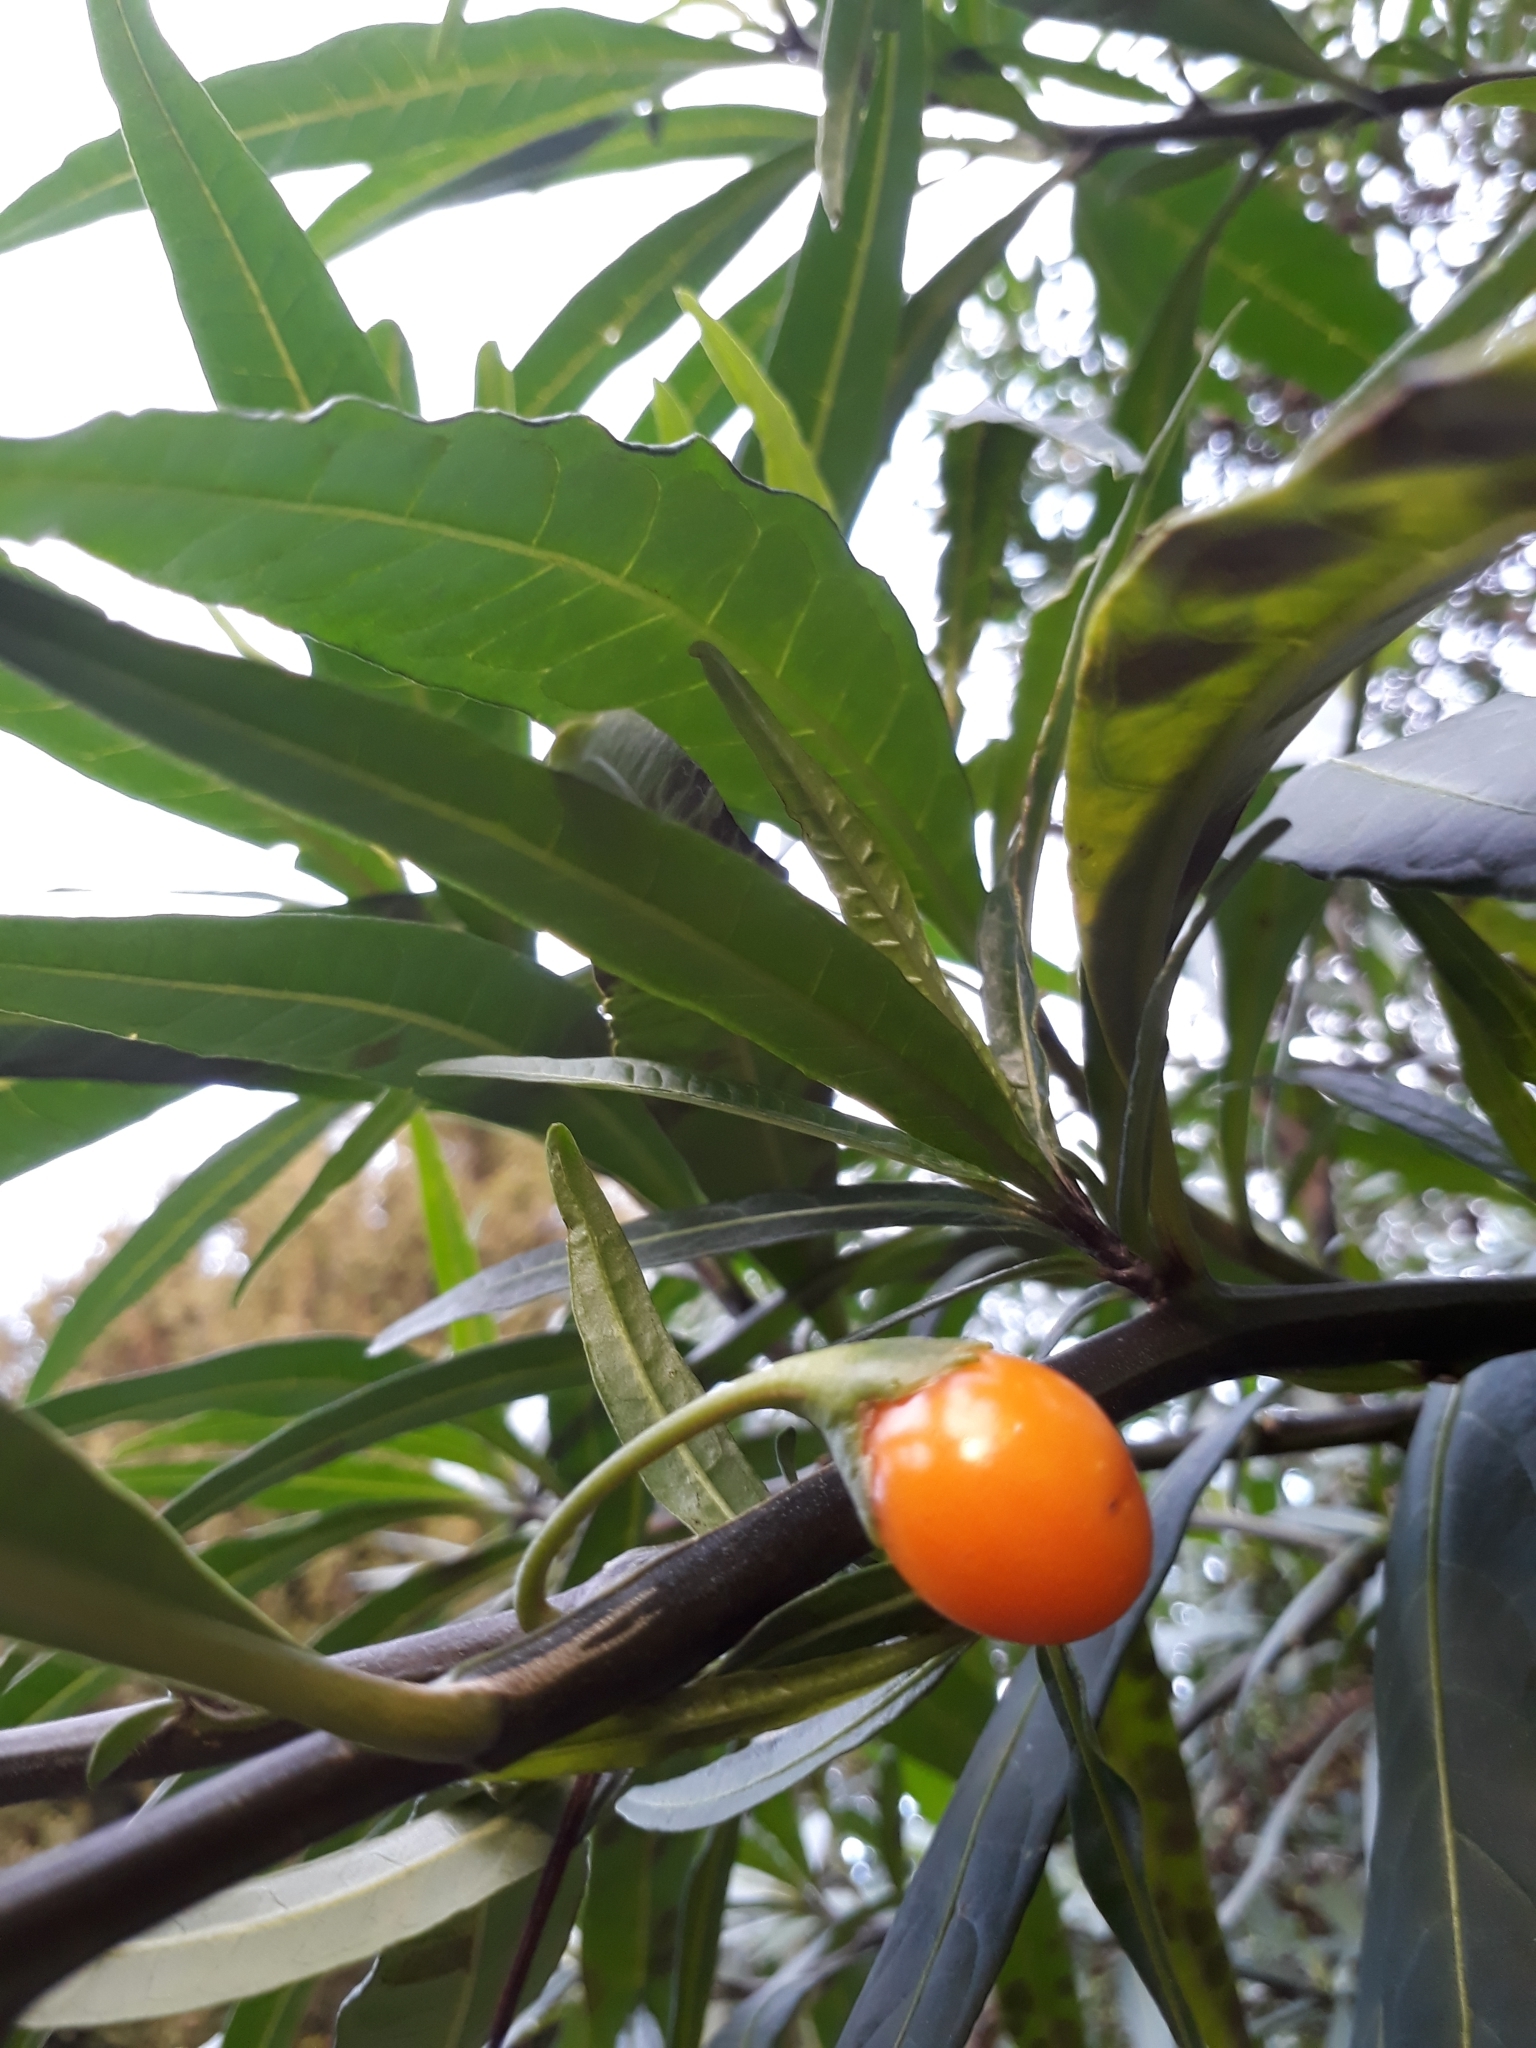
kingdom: Plantae
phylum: Tracheophyta
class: Magnoliopsida
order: Solanales
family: Solanaceae
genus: Solanum
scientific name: Solanum laciniatum
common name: Kangaroo-apple
